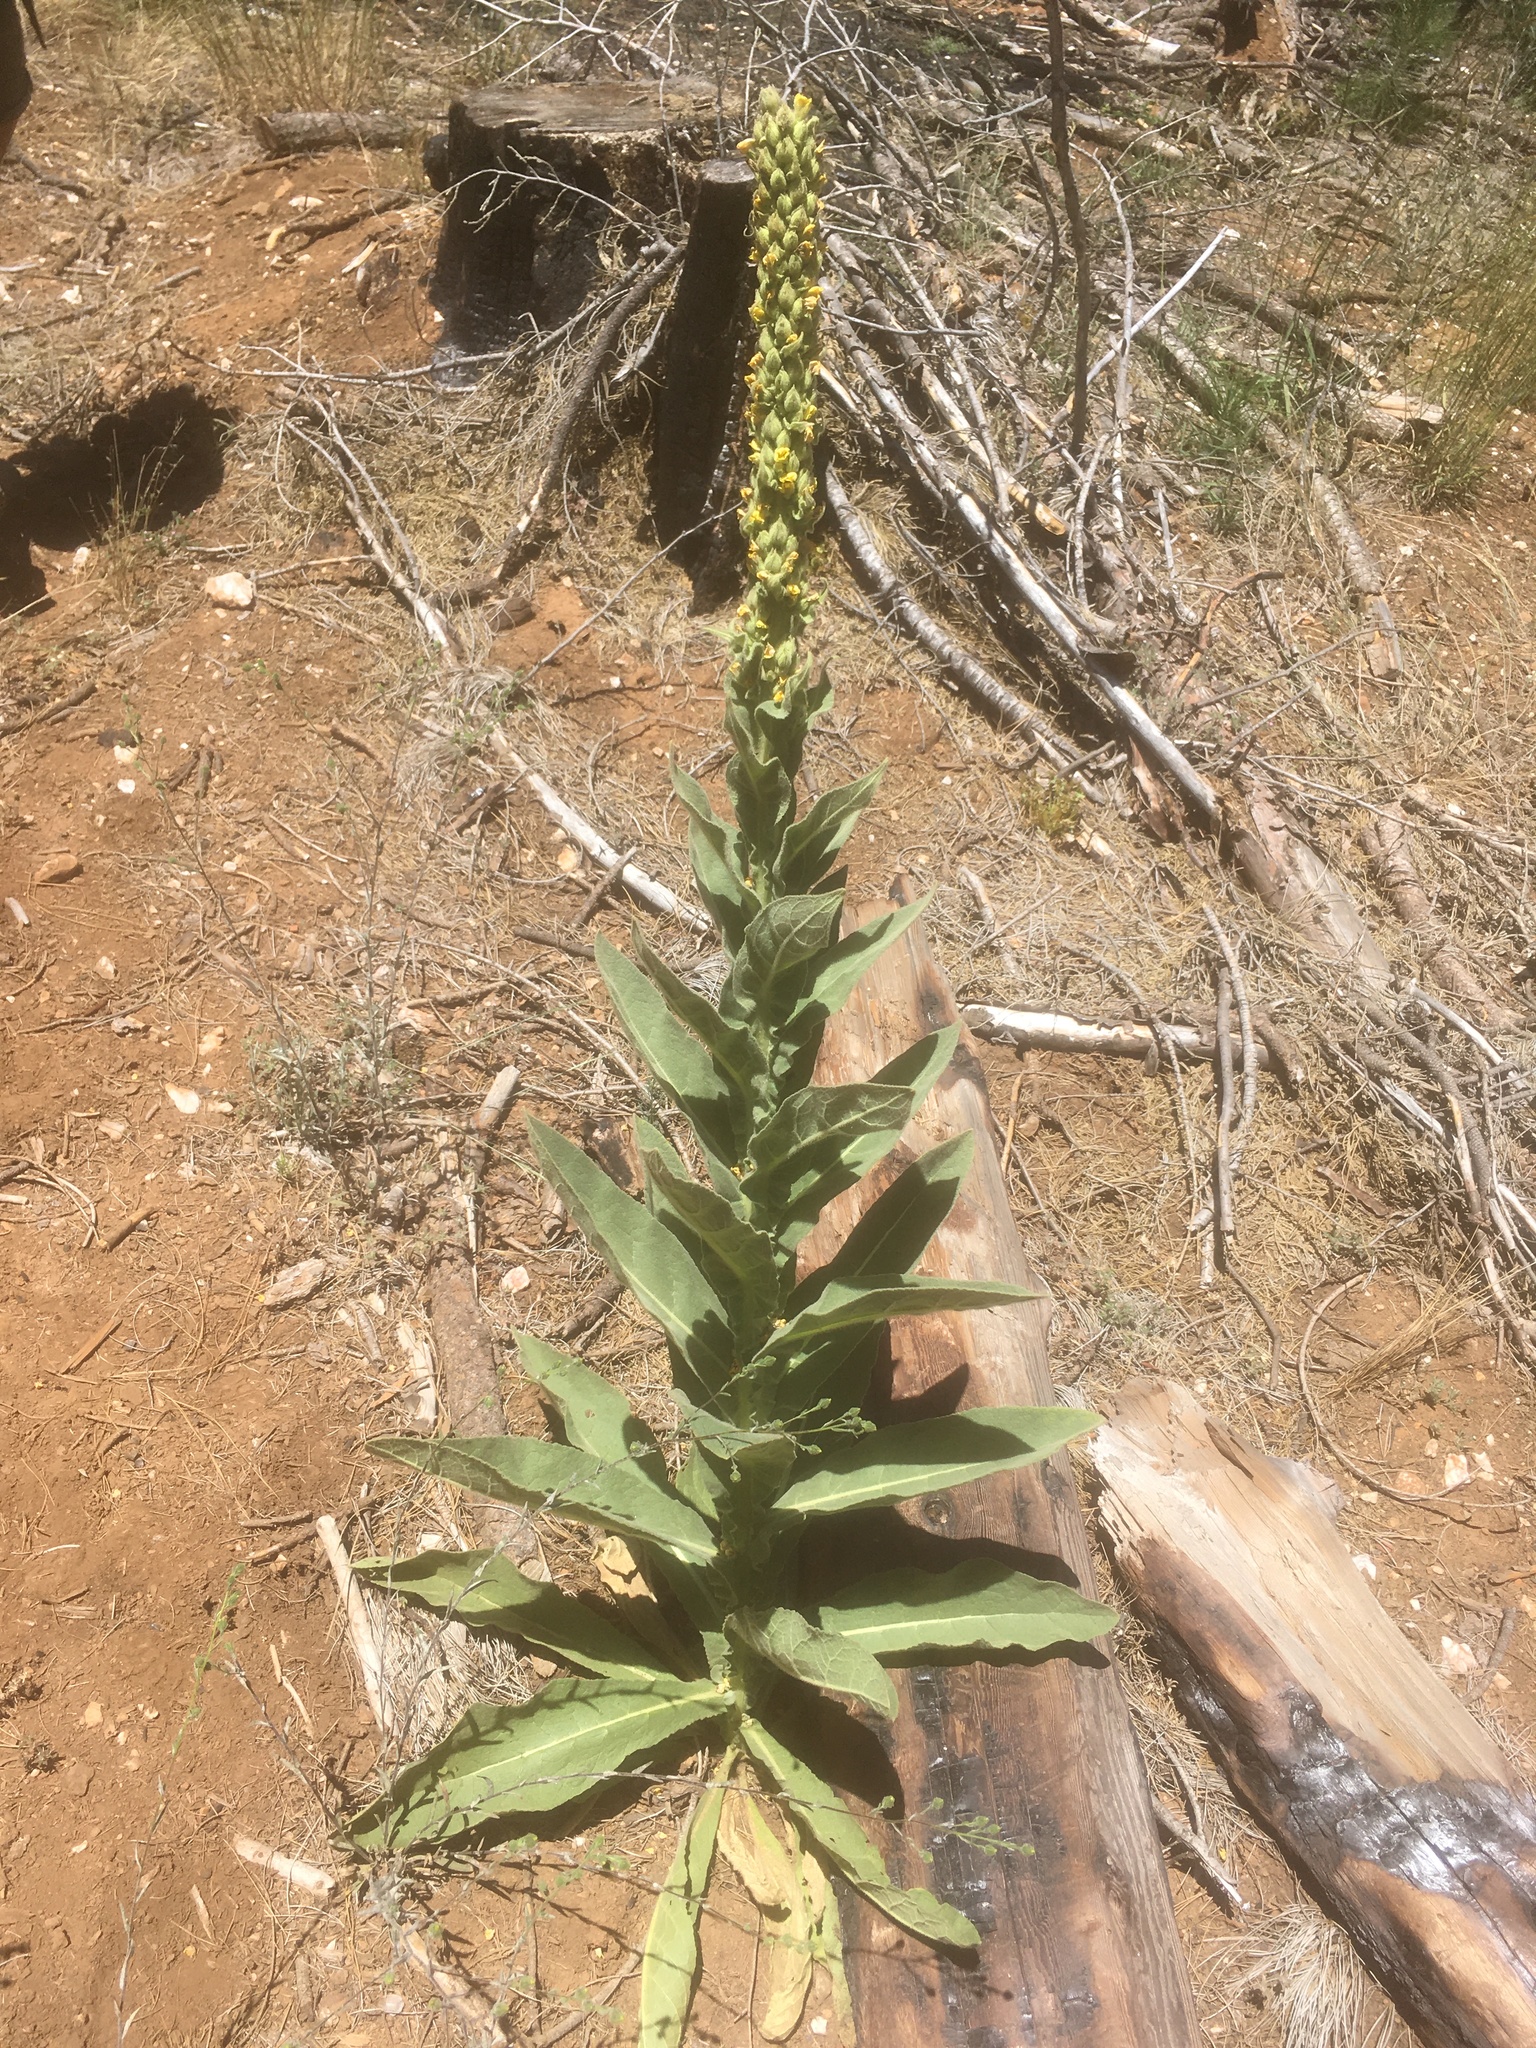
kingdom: Plantae
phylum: Tracheophyta
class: Magnoliopsida
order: Lamiales
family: Scrophulariaceae
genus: Verbascum
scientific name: Verbascum thapsus
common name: Common mullein
